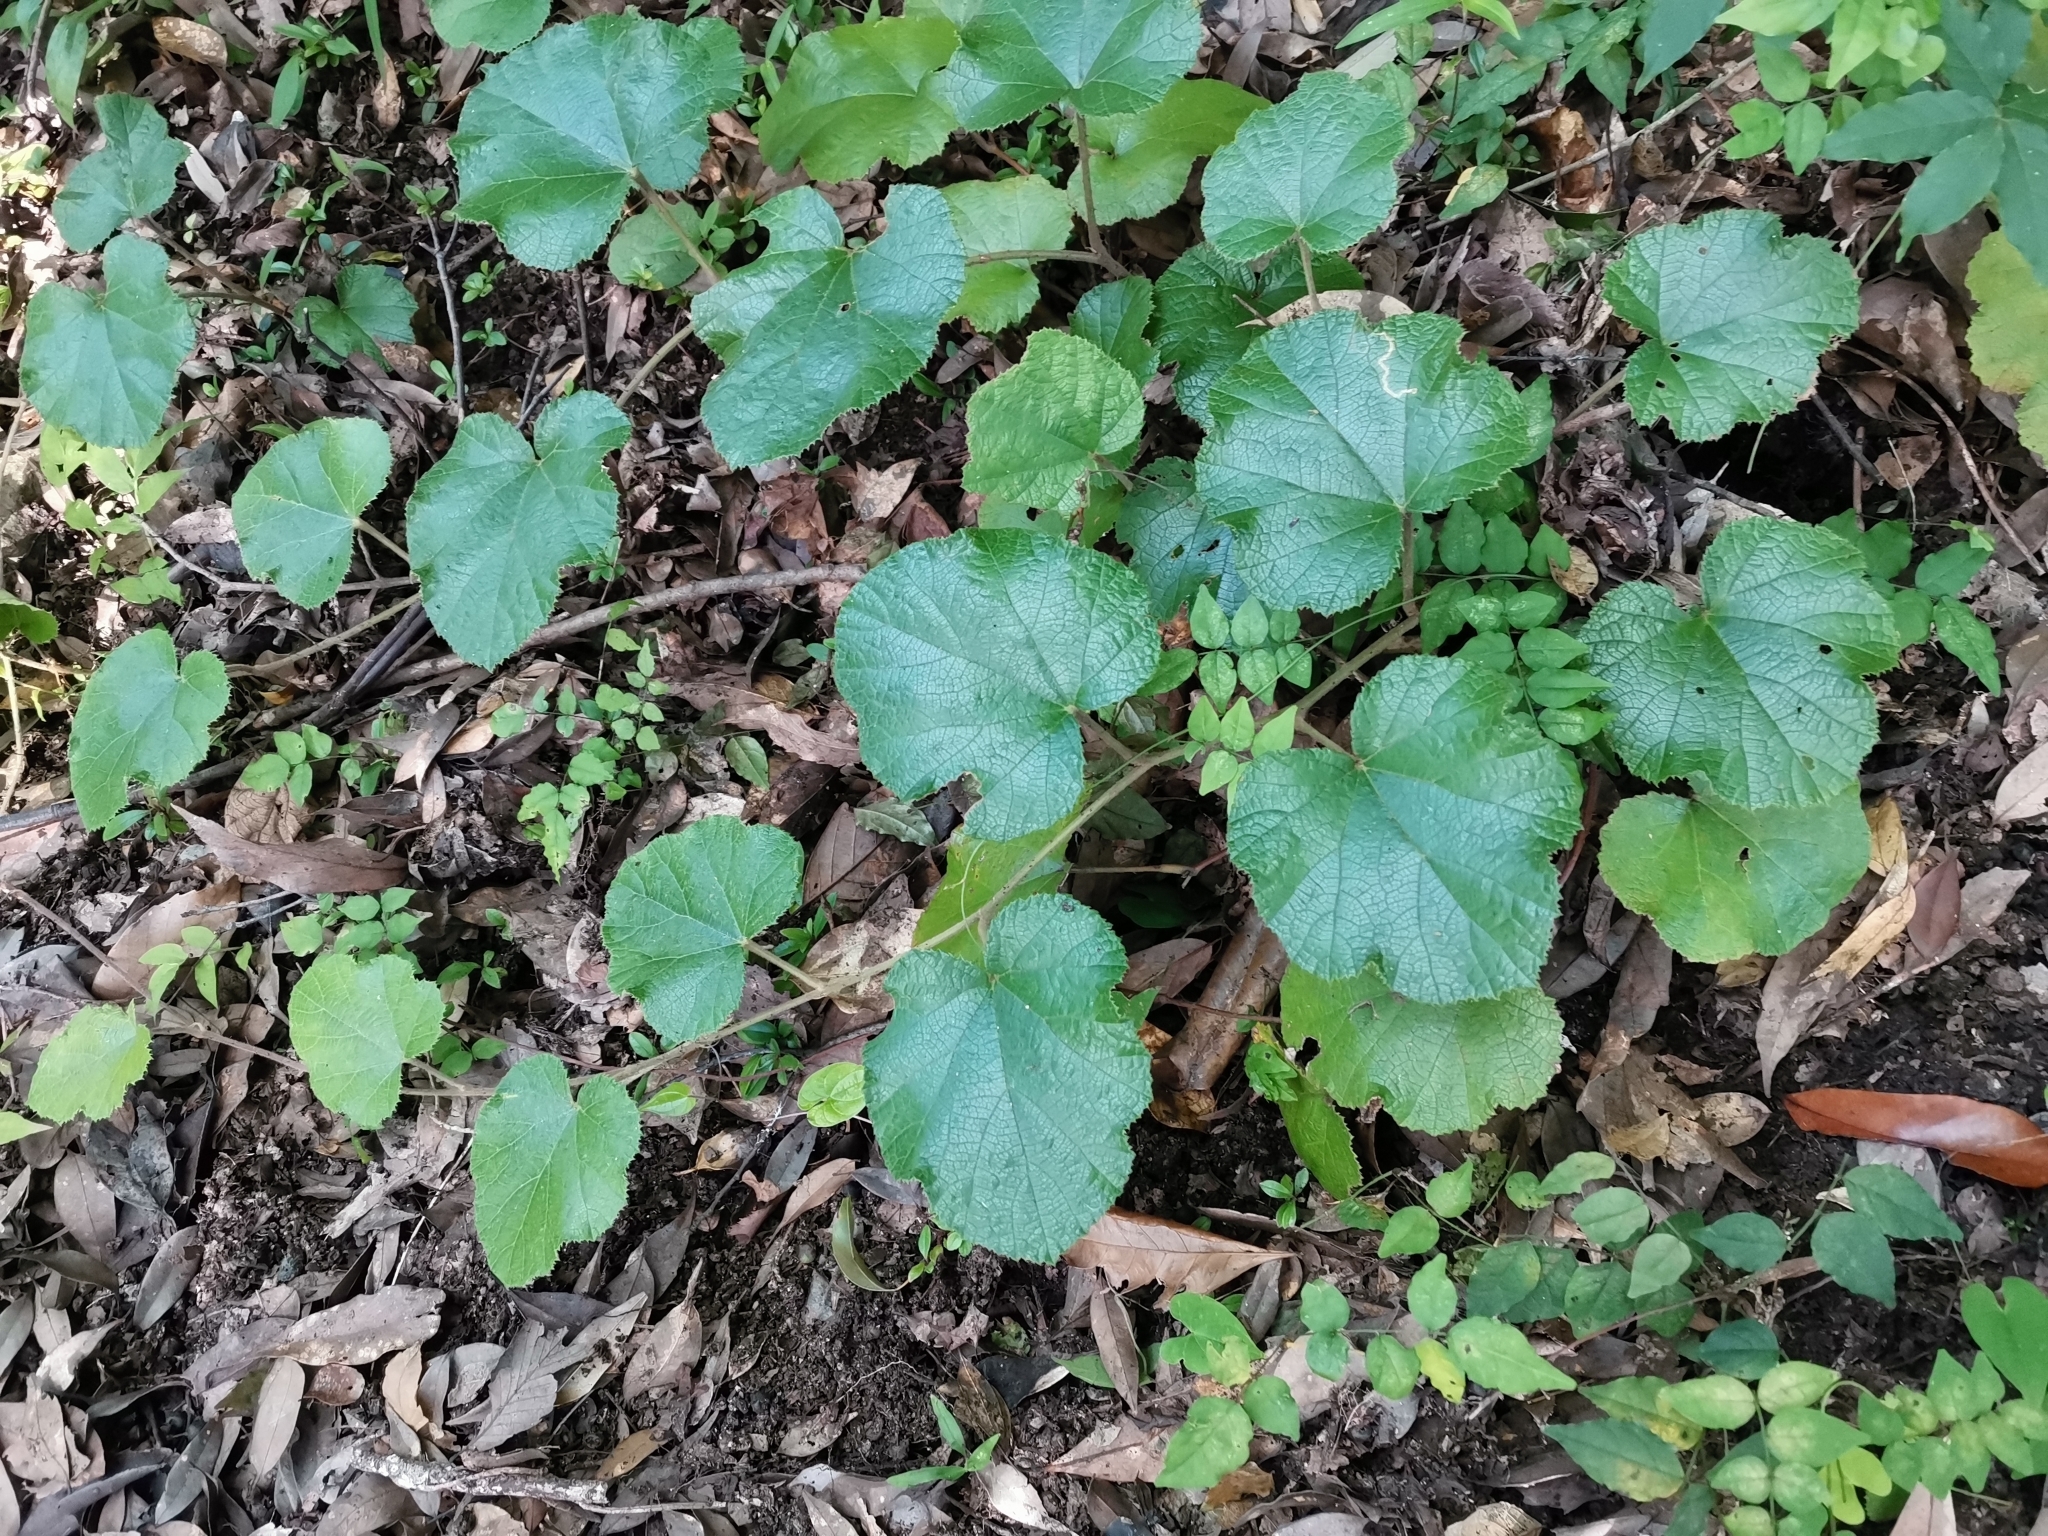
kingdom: Plantae
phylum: Tracheophyta
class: Magnoliopsida
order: Rosales
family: Rosaceae
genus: Rubus
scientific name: Rubus buergeri
